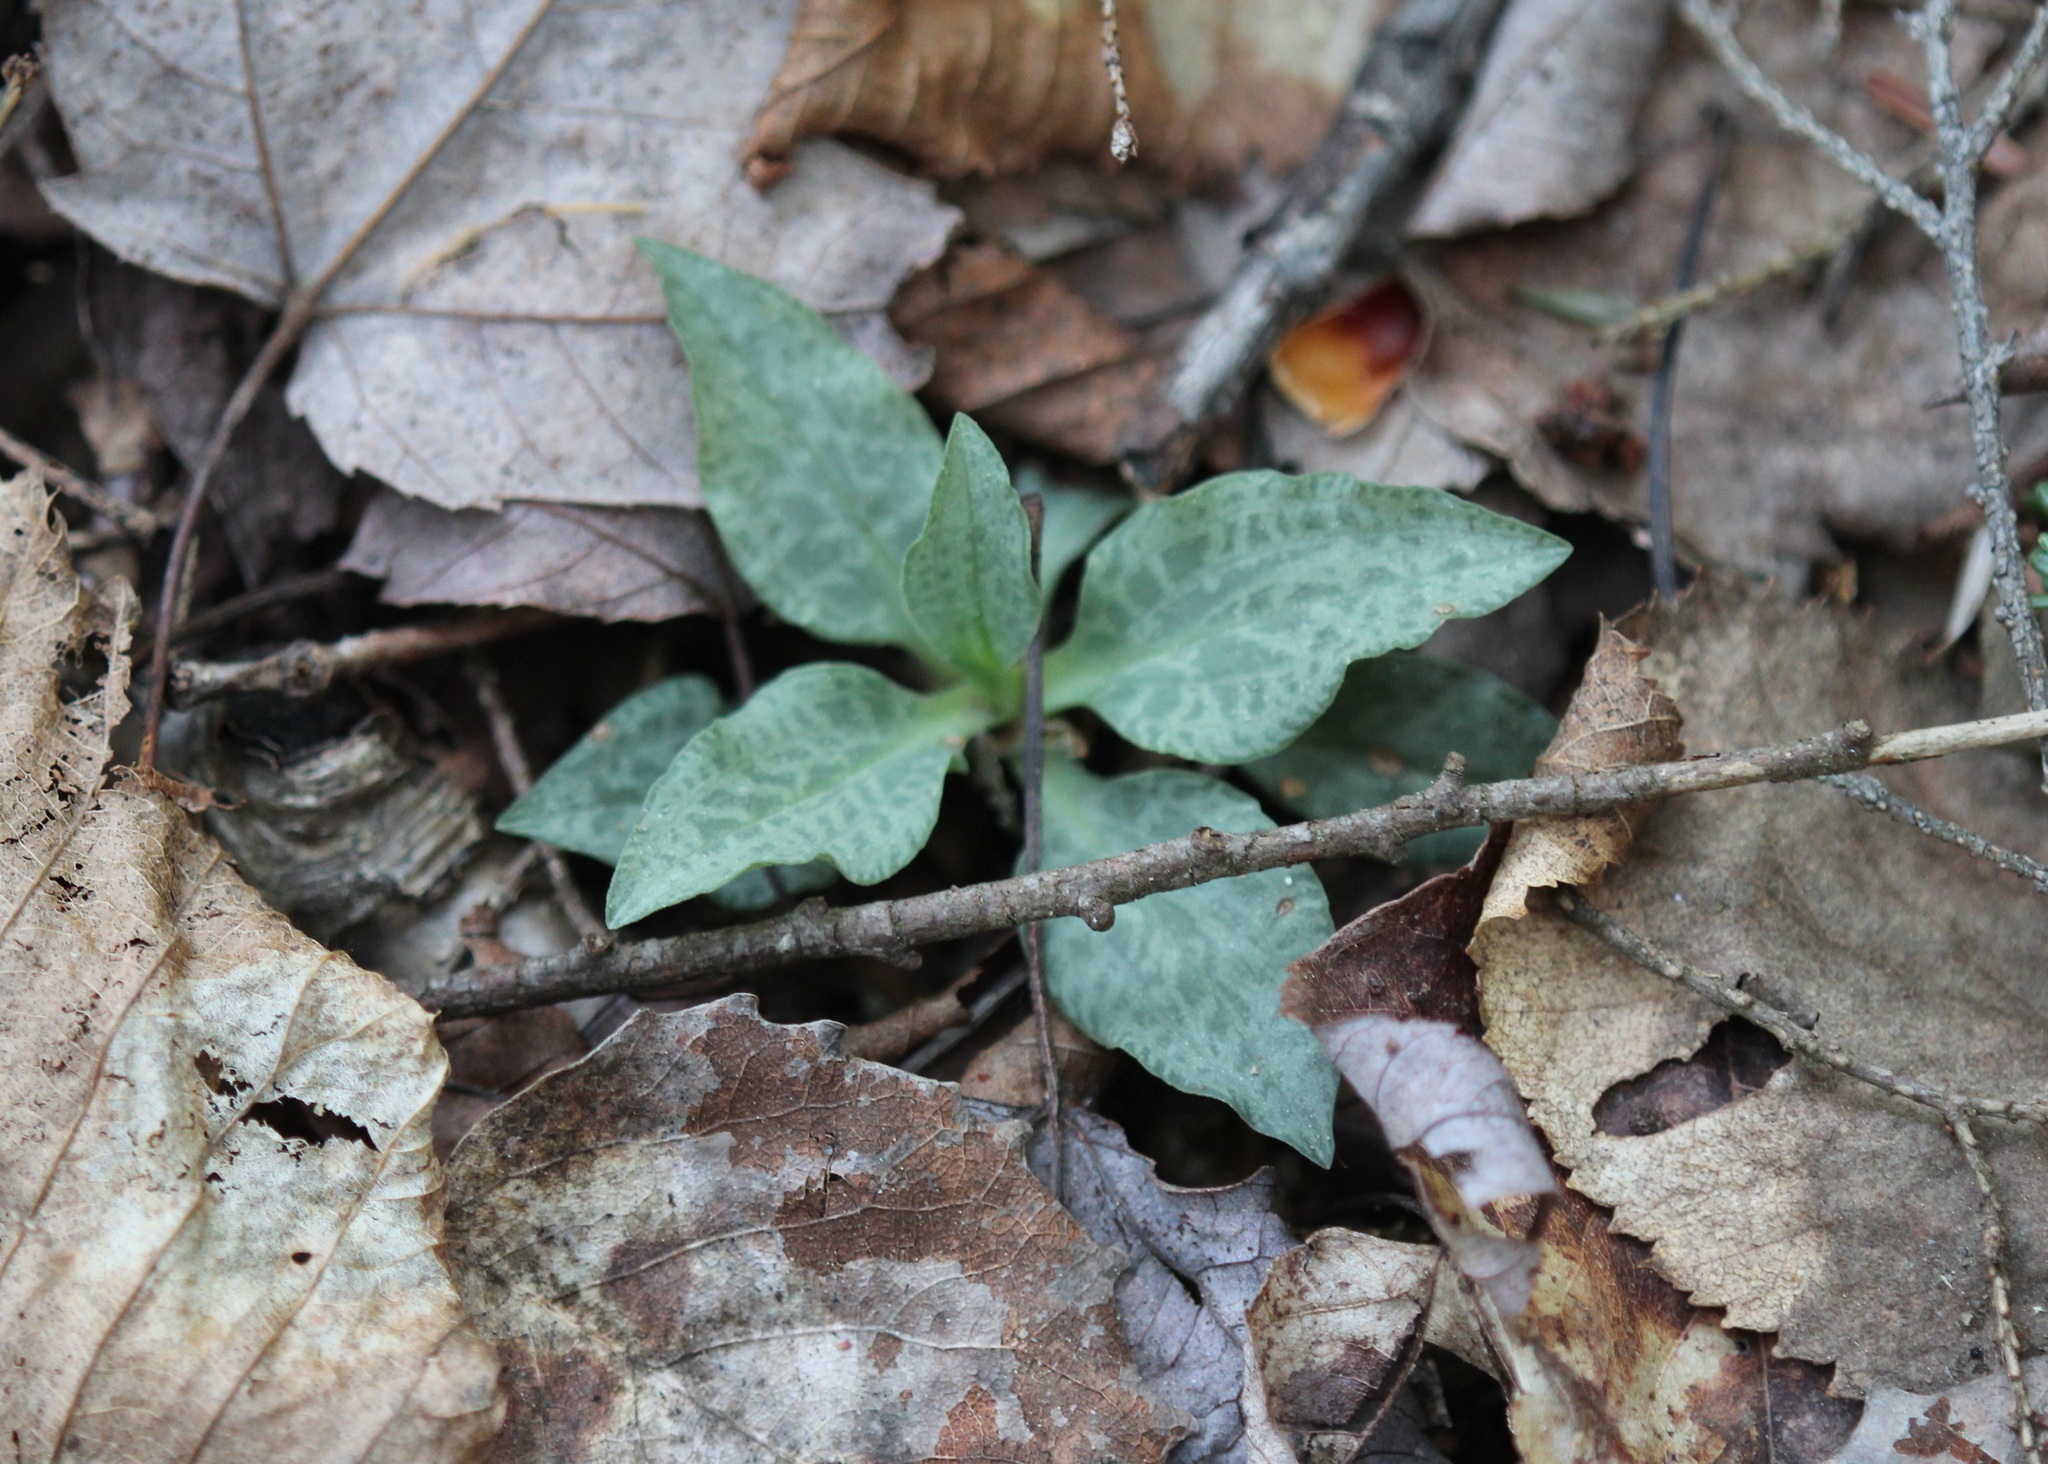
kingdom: Plantae
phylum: Tracheophyta
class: Liliopsida
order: Asparagales
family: Orchidaceae
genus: Goodyera
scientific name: Goodyera tesselata
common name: Checkered rattlesnake-plantain
